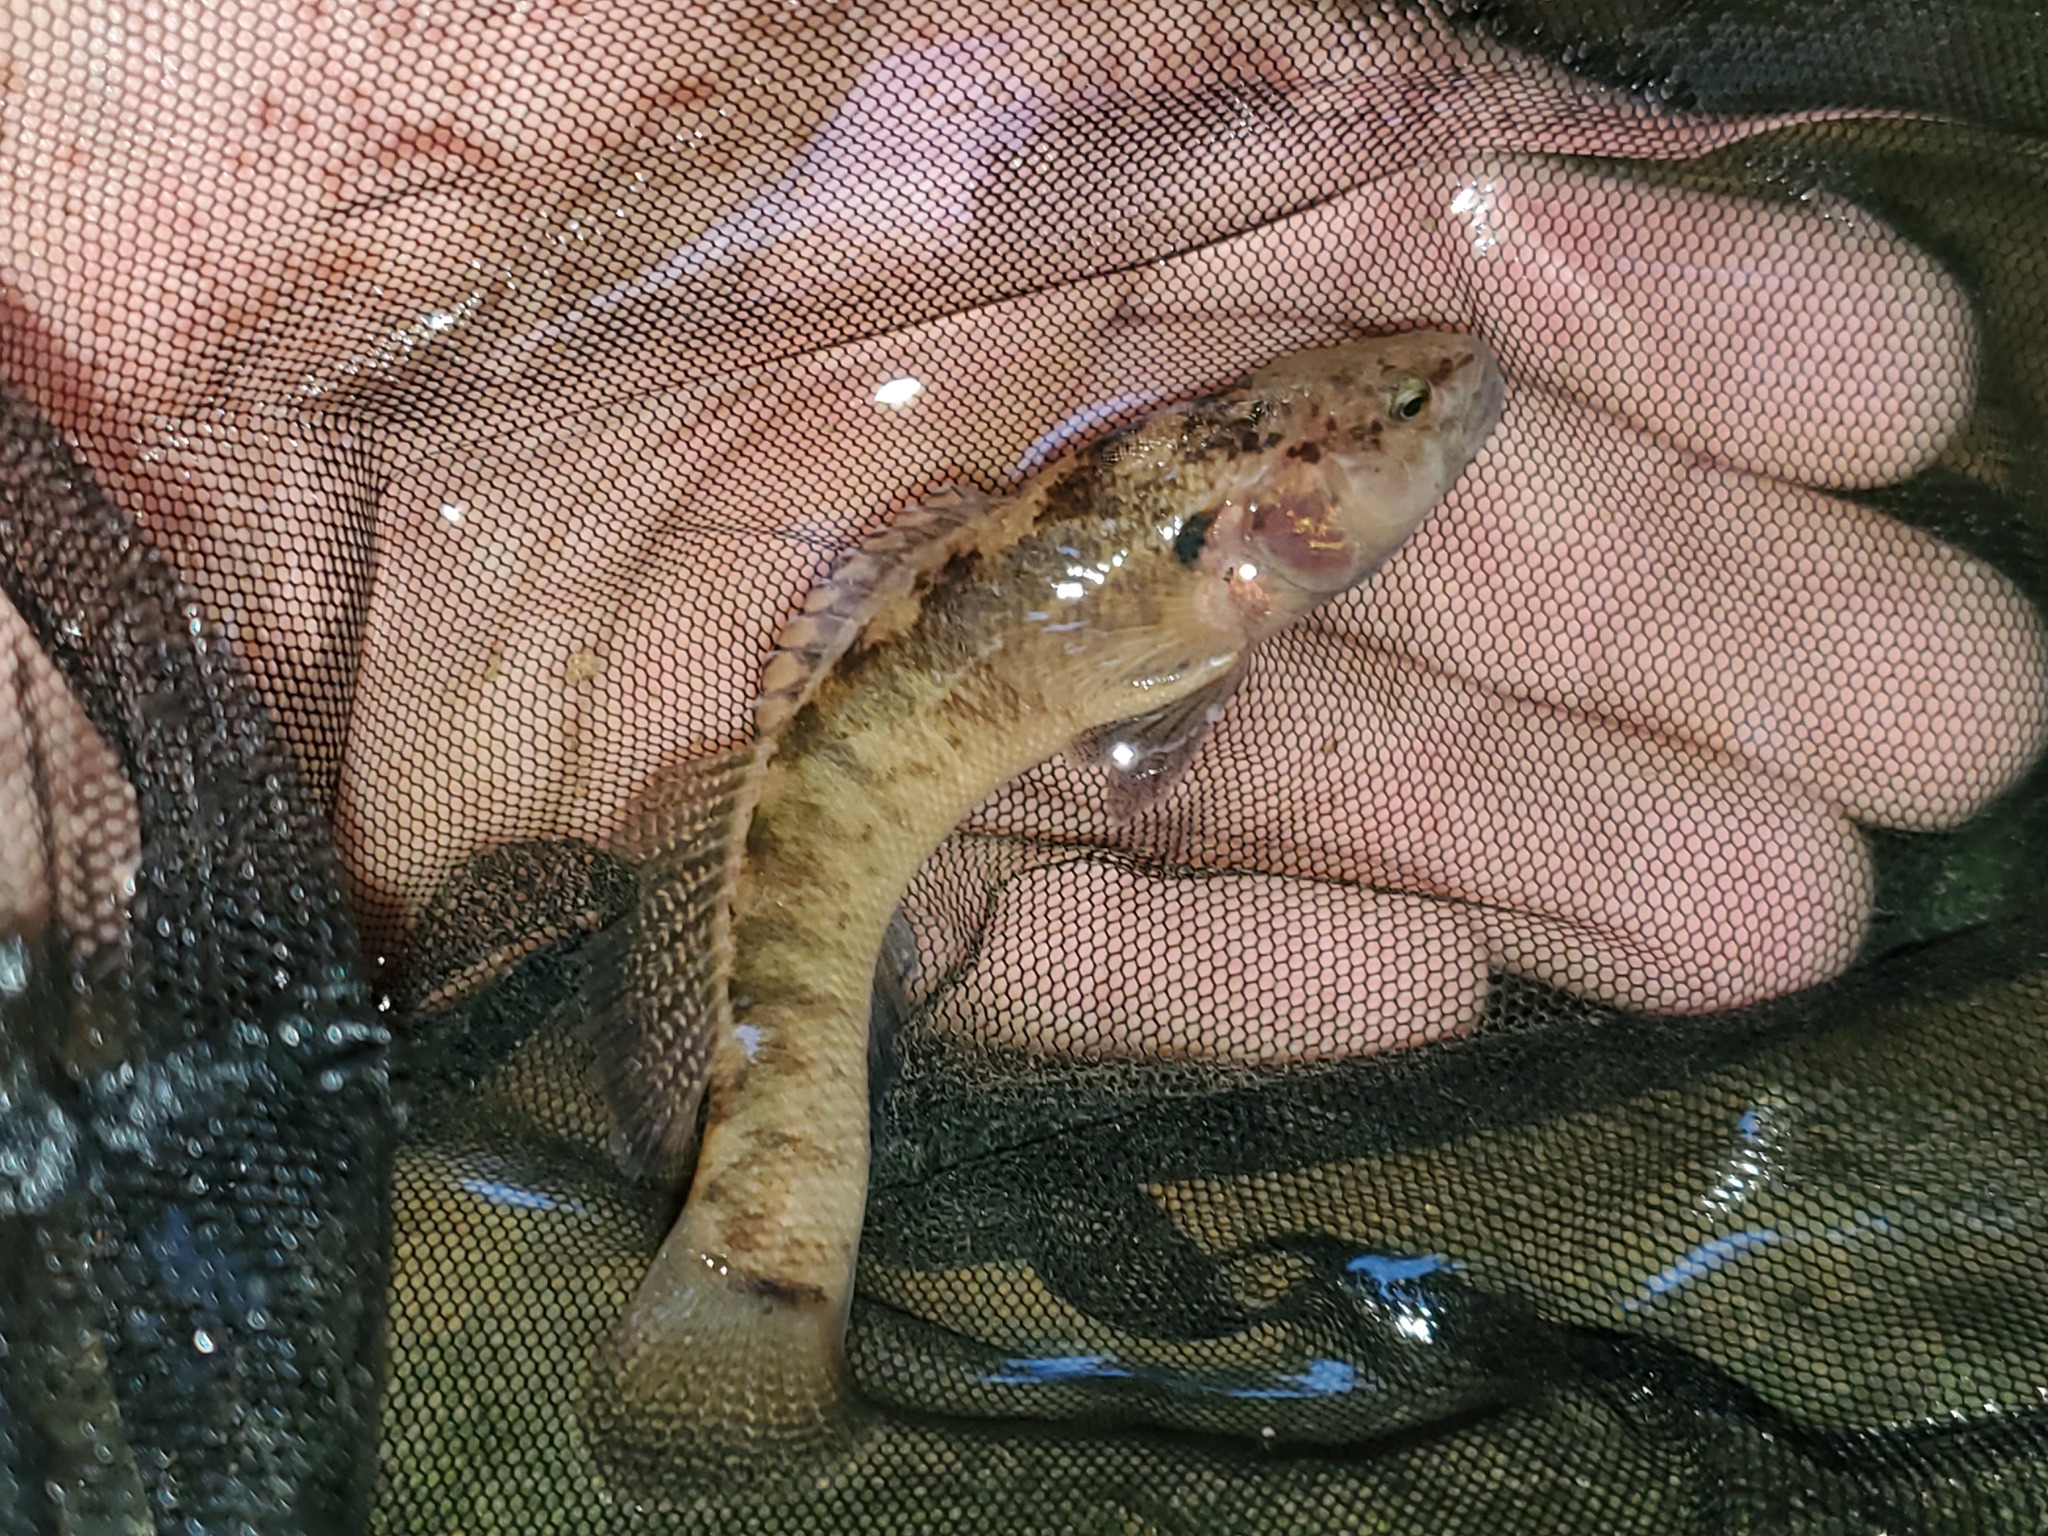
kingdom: Animalia
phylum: Chordata
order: Perciformes
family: Percidae
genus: Etheostoma
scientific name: Etheostoma crossopterum
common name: Fringed darter
